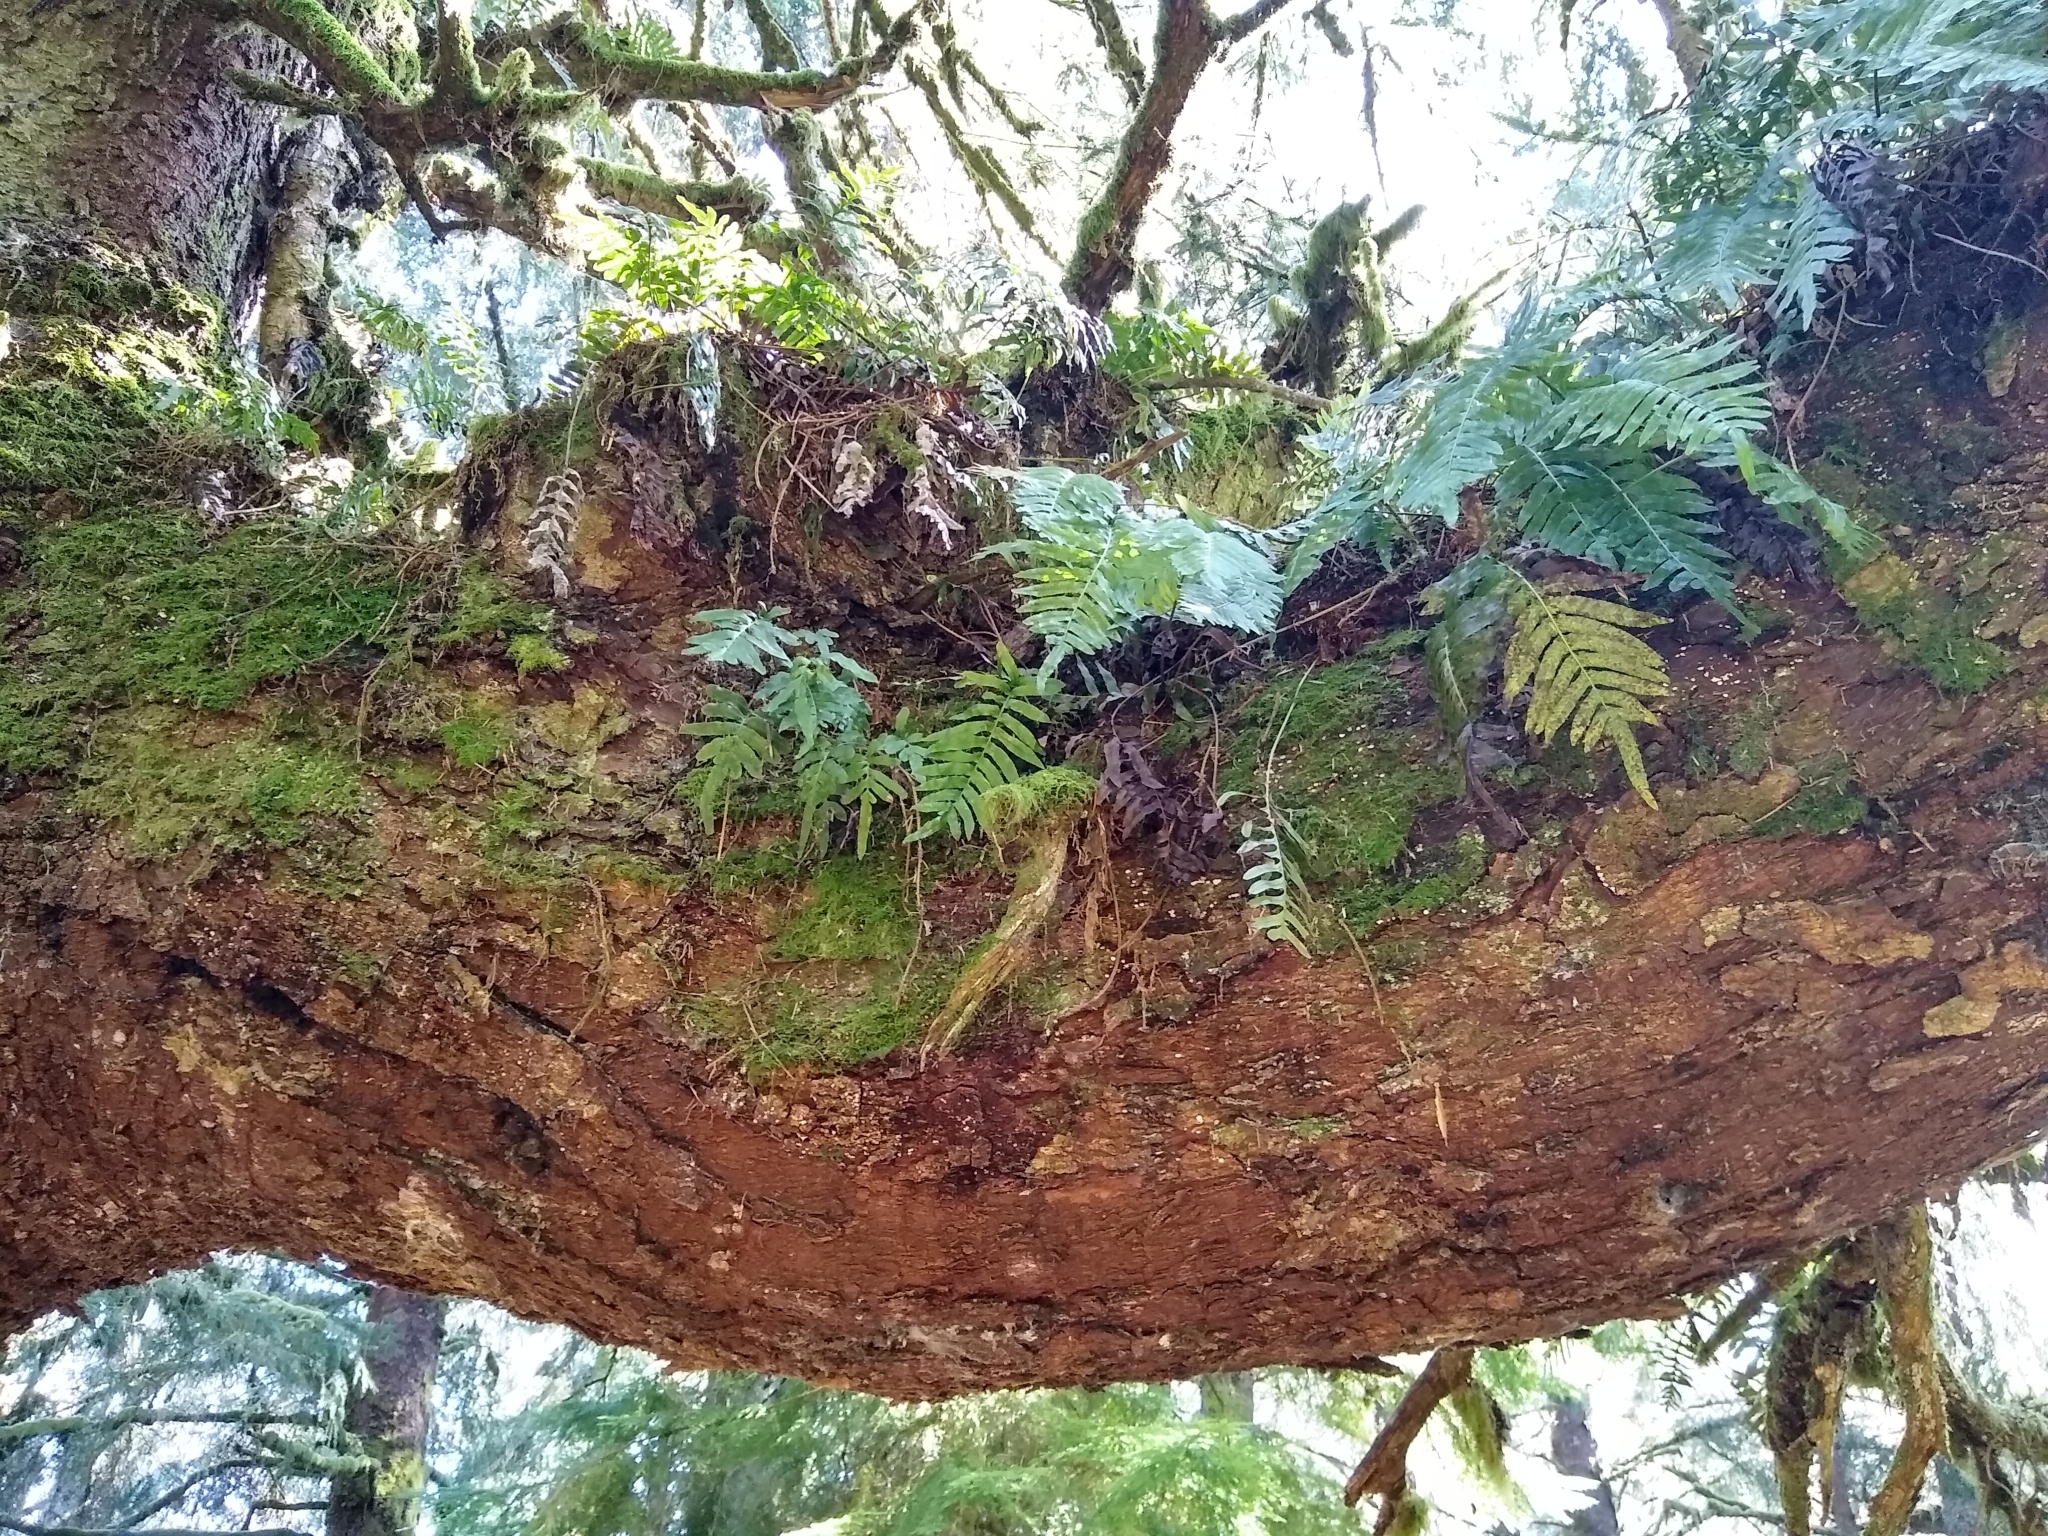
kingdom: Plantae
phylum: Tracheophyta
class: Polypodiopsida
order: Polypodiales
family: Polypodiaceae
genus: Polypodium
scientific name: Polypodium scouleri
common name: Scouler's polypody
